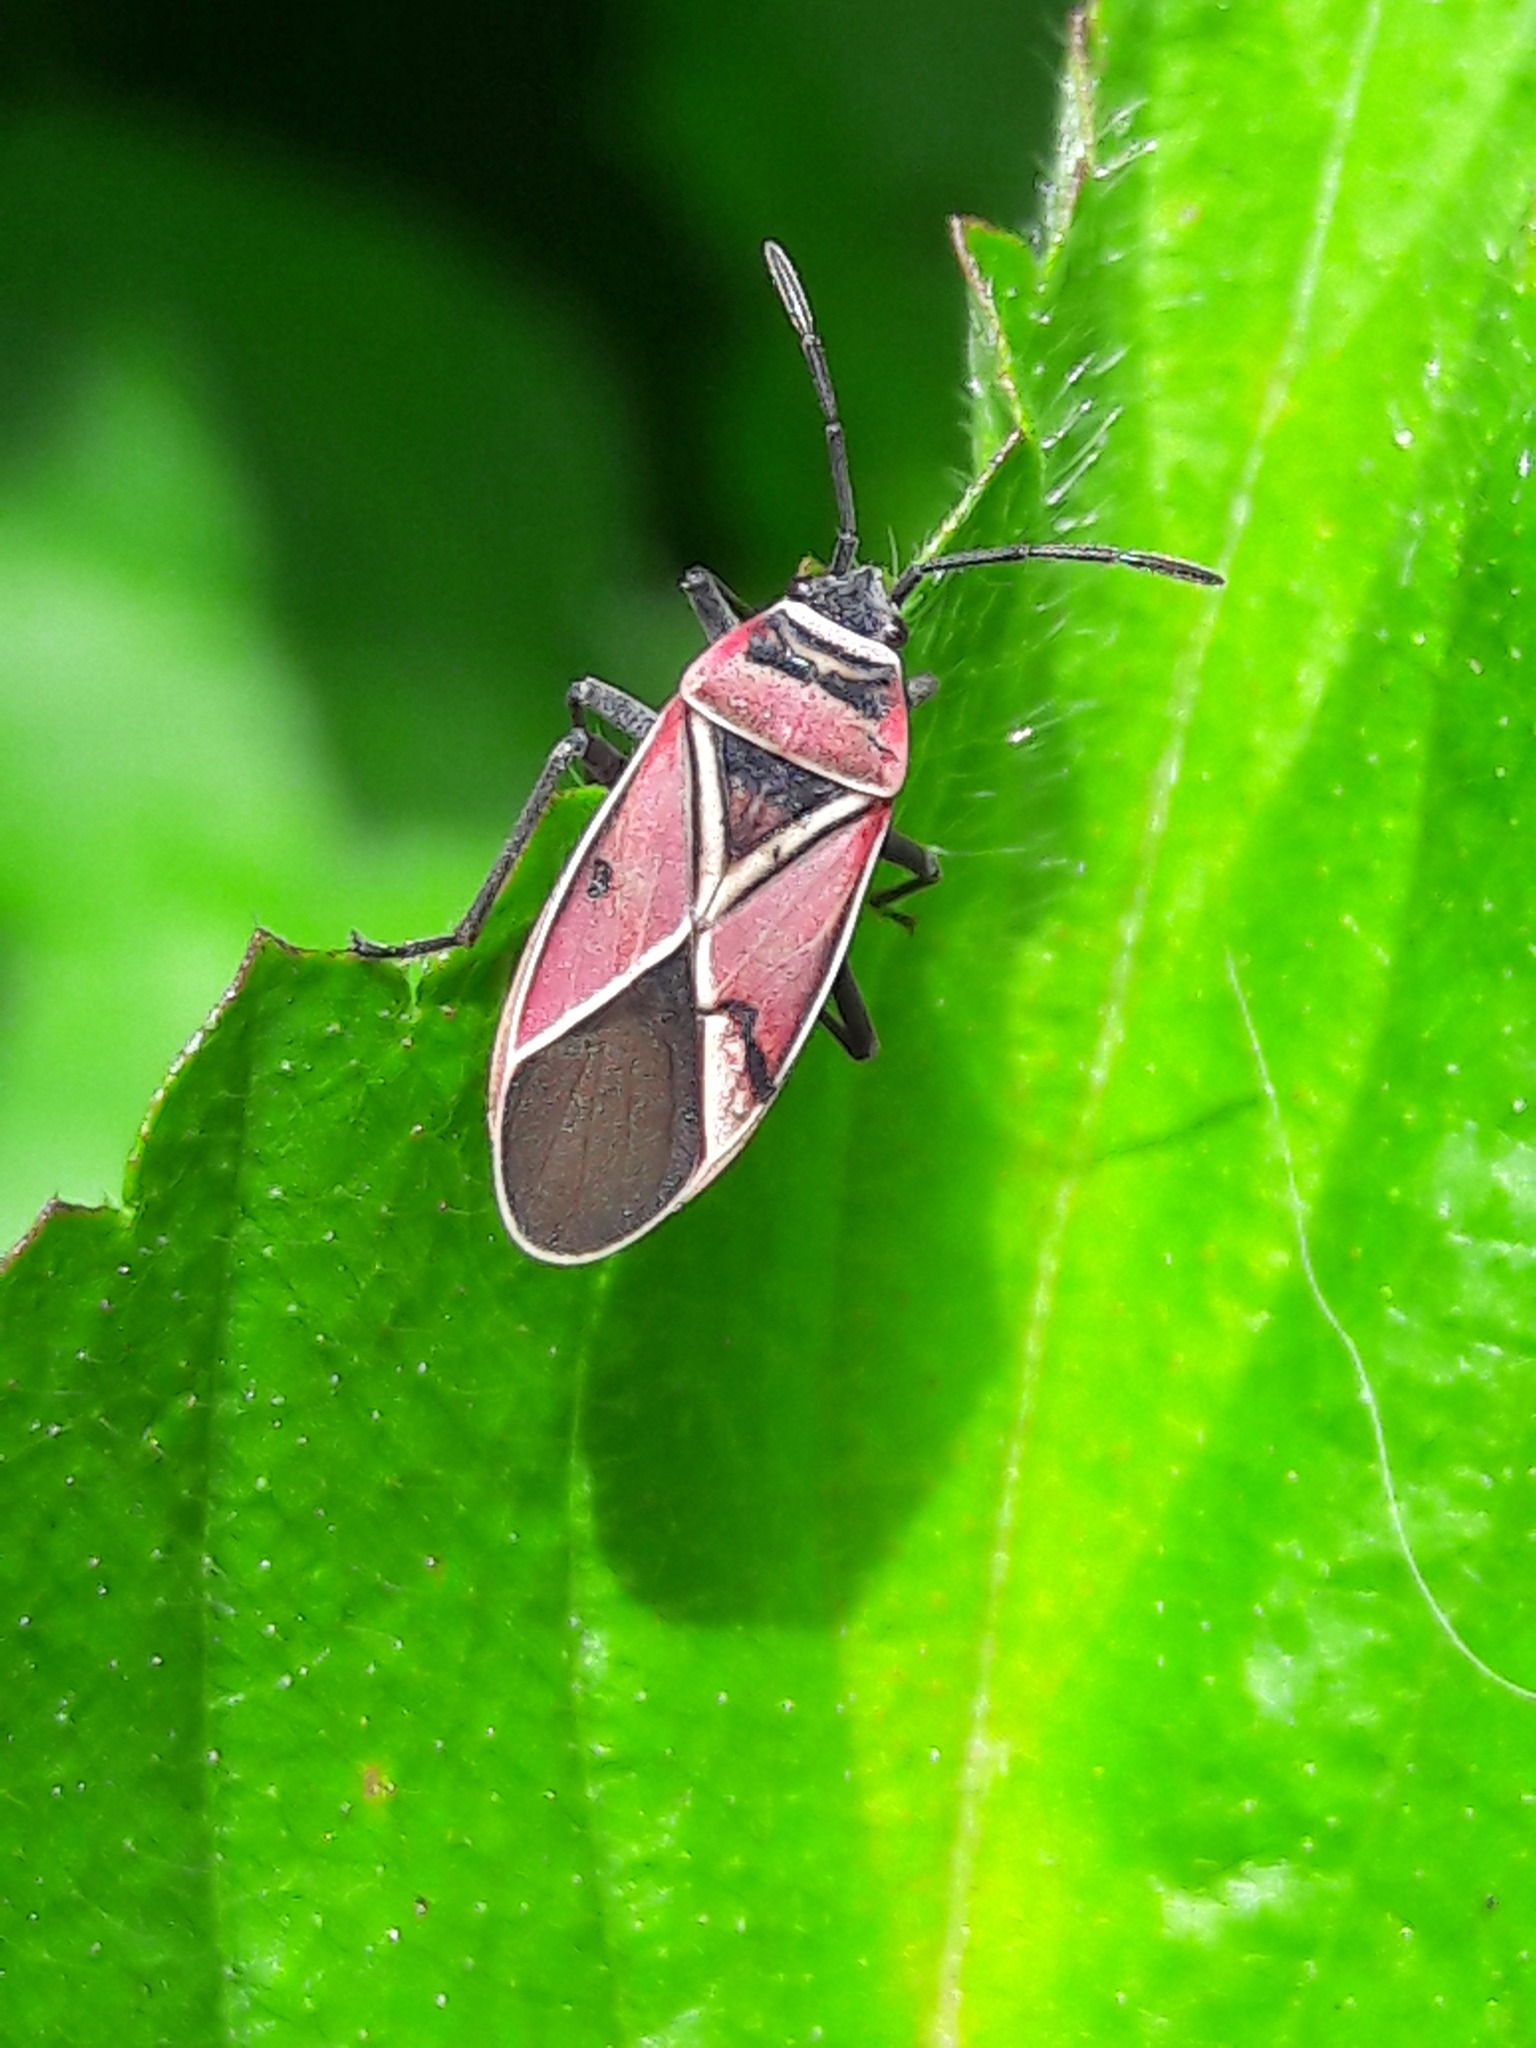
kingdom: Animalia
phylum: Arthropoda
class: Insecta
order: Hemiptera
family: Lygaeidae
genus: Neacoryphus
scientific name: Neacoryphus bicrucis
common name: Lygaeid bug
